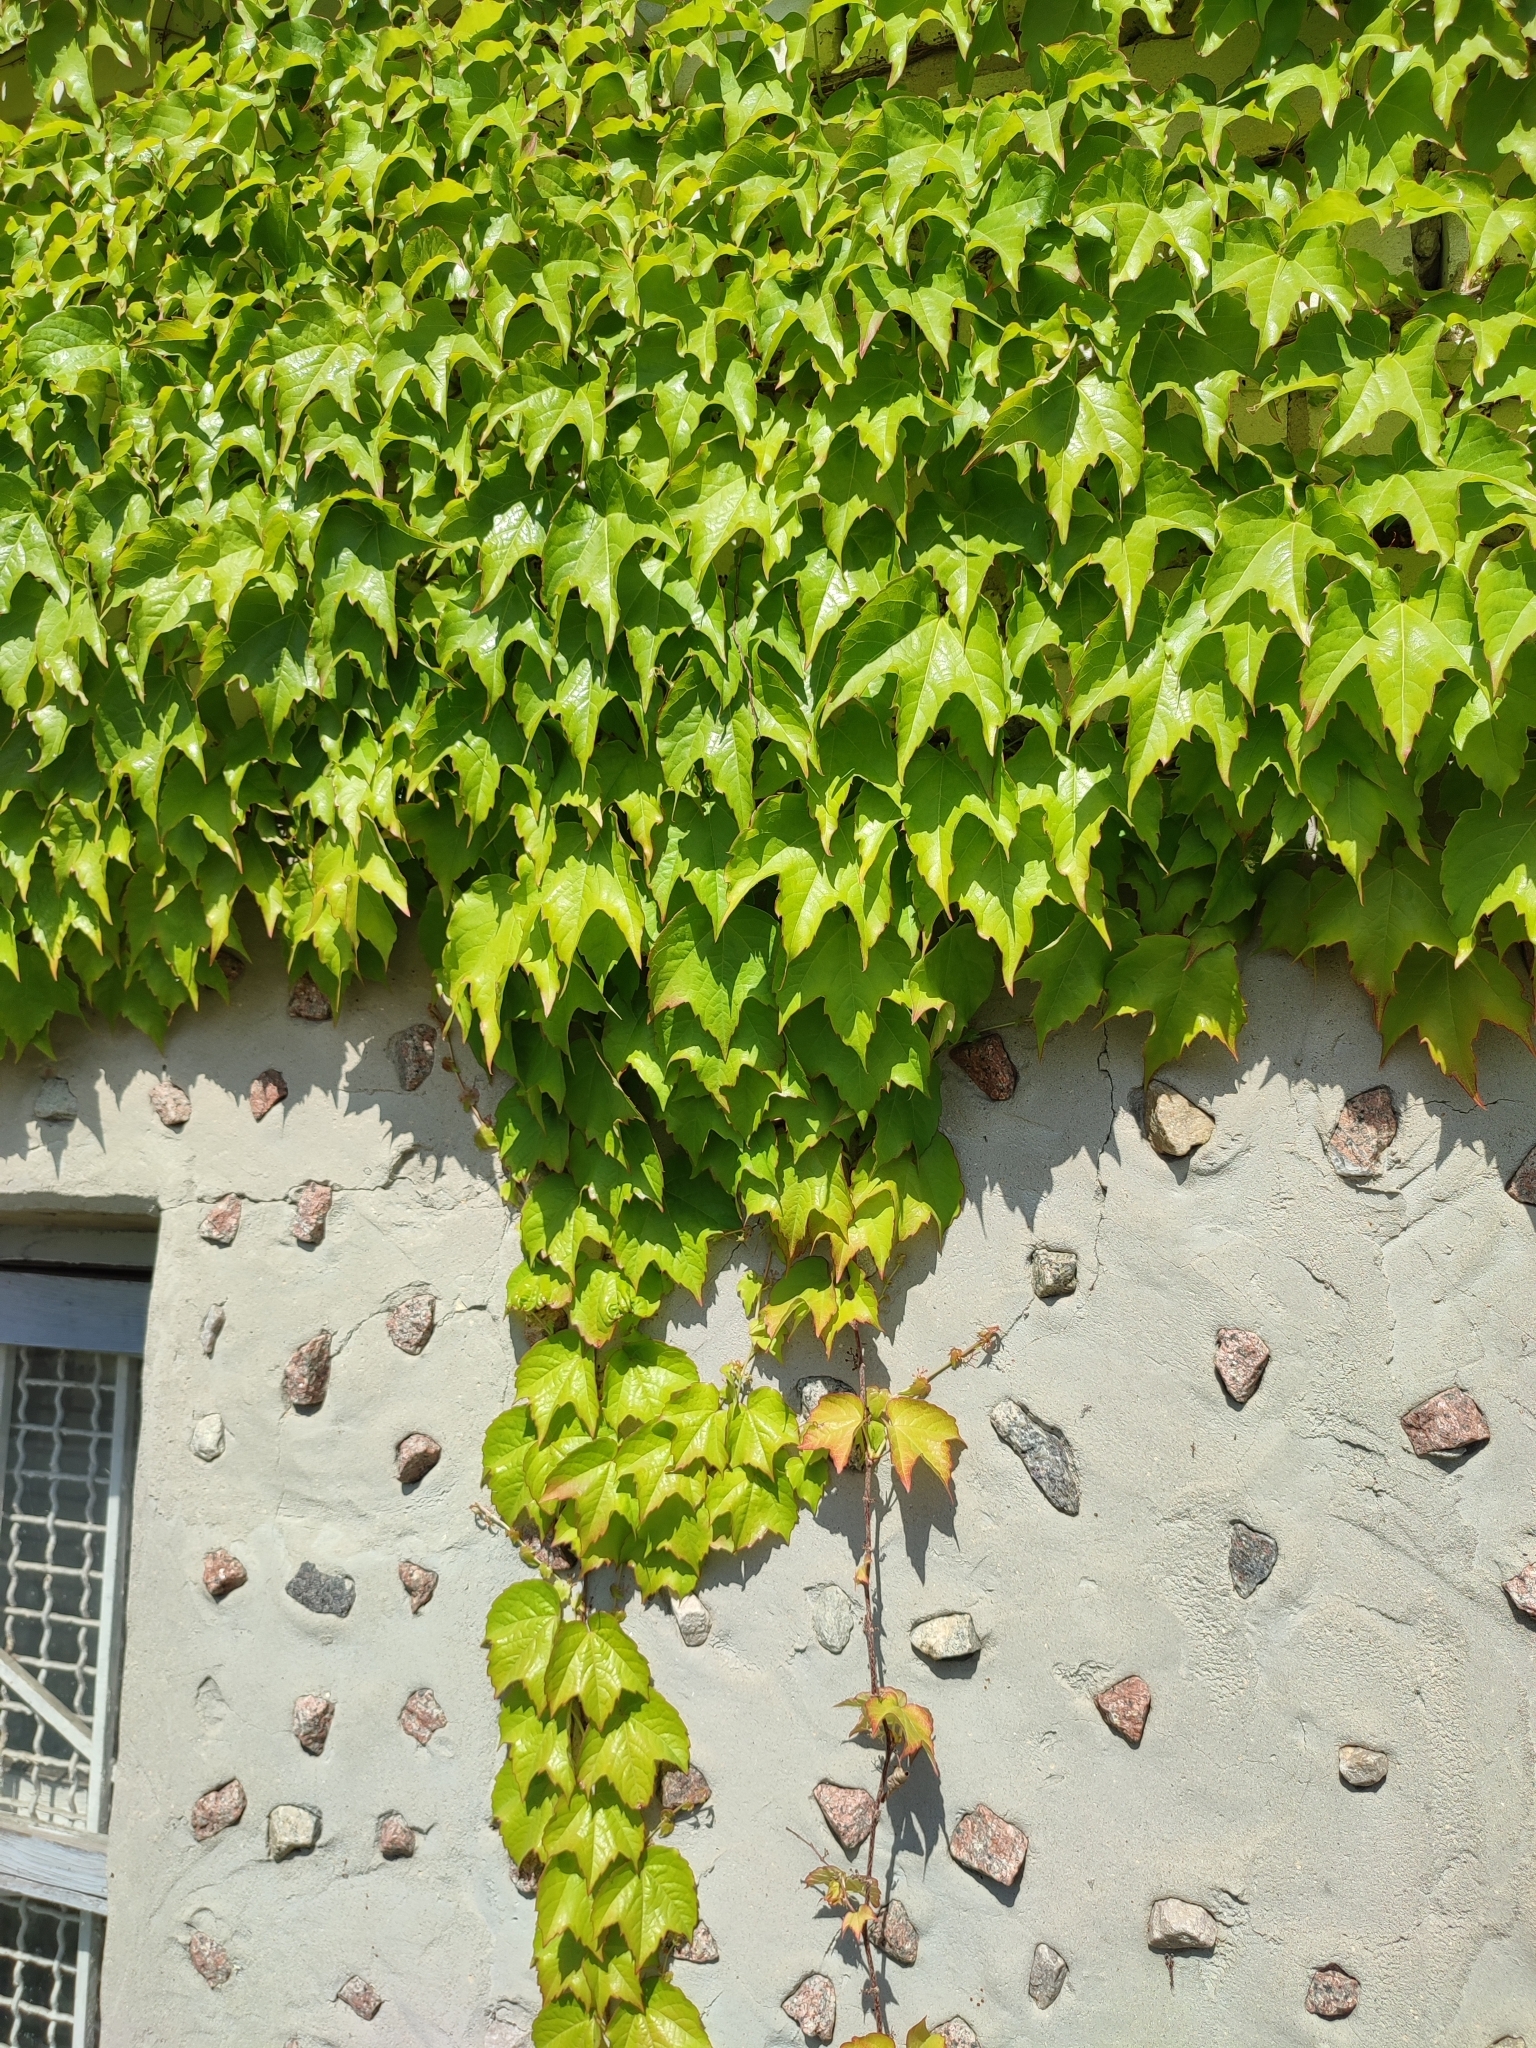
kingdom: Plantae
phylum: Tracheophyta
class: Magnoliopsida
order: Vitales
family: Vitaceae
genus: Parthenocissus
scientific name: Parthenocissus tricuspidata
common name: Boston ivy
